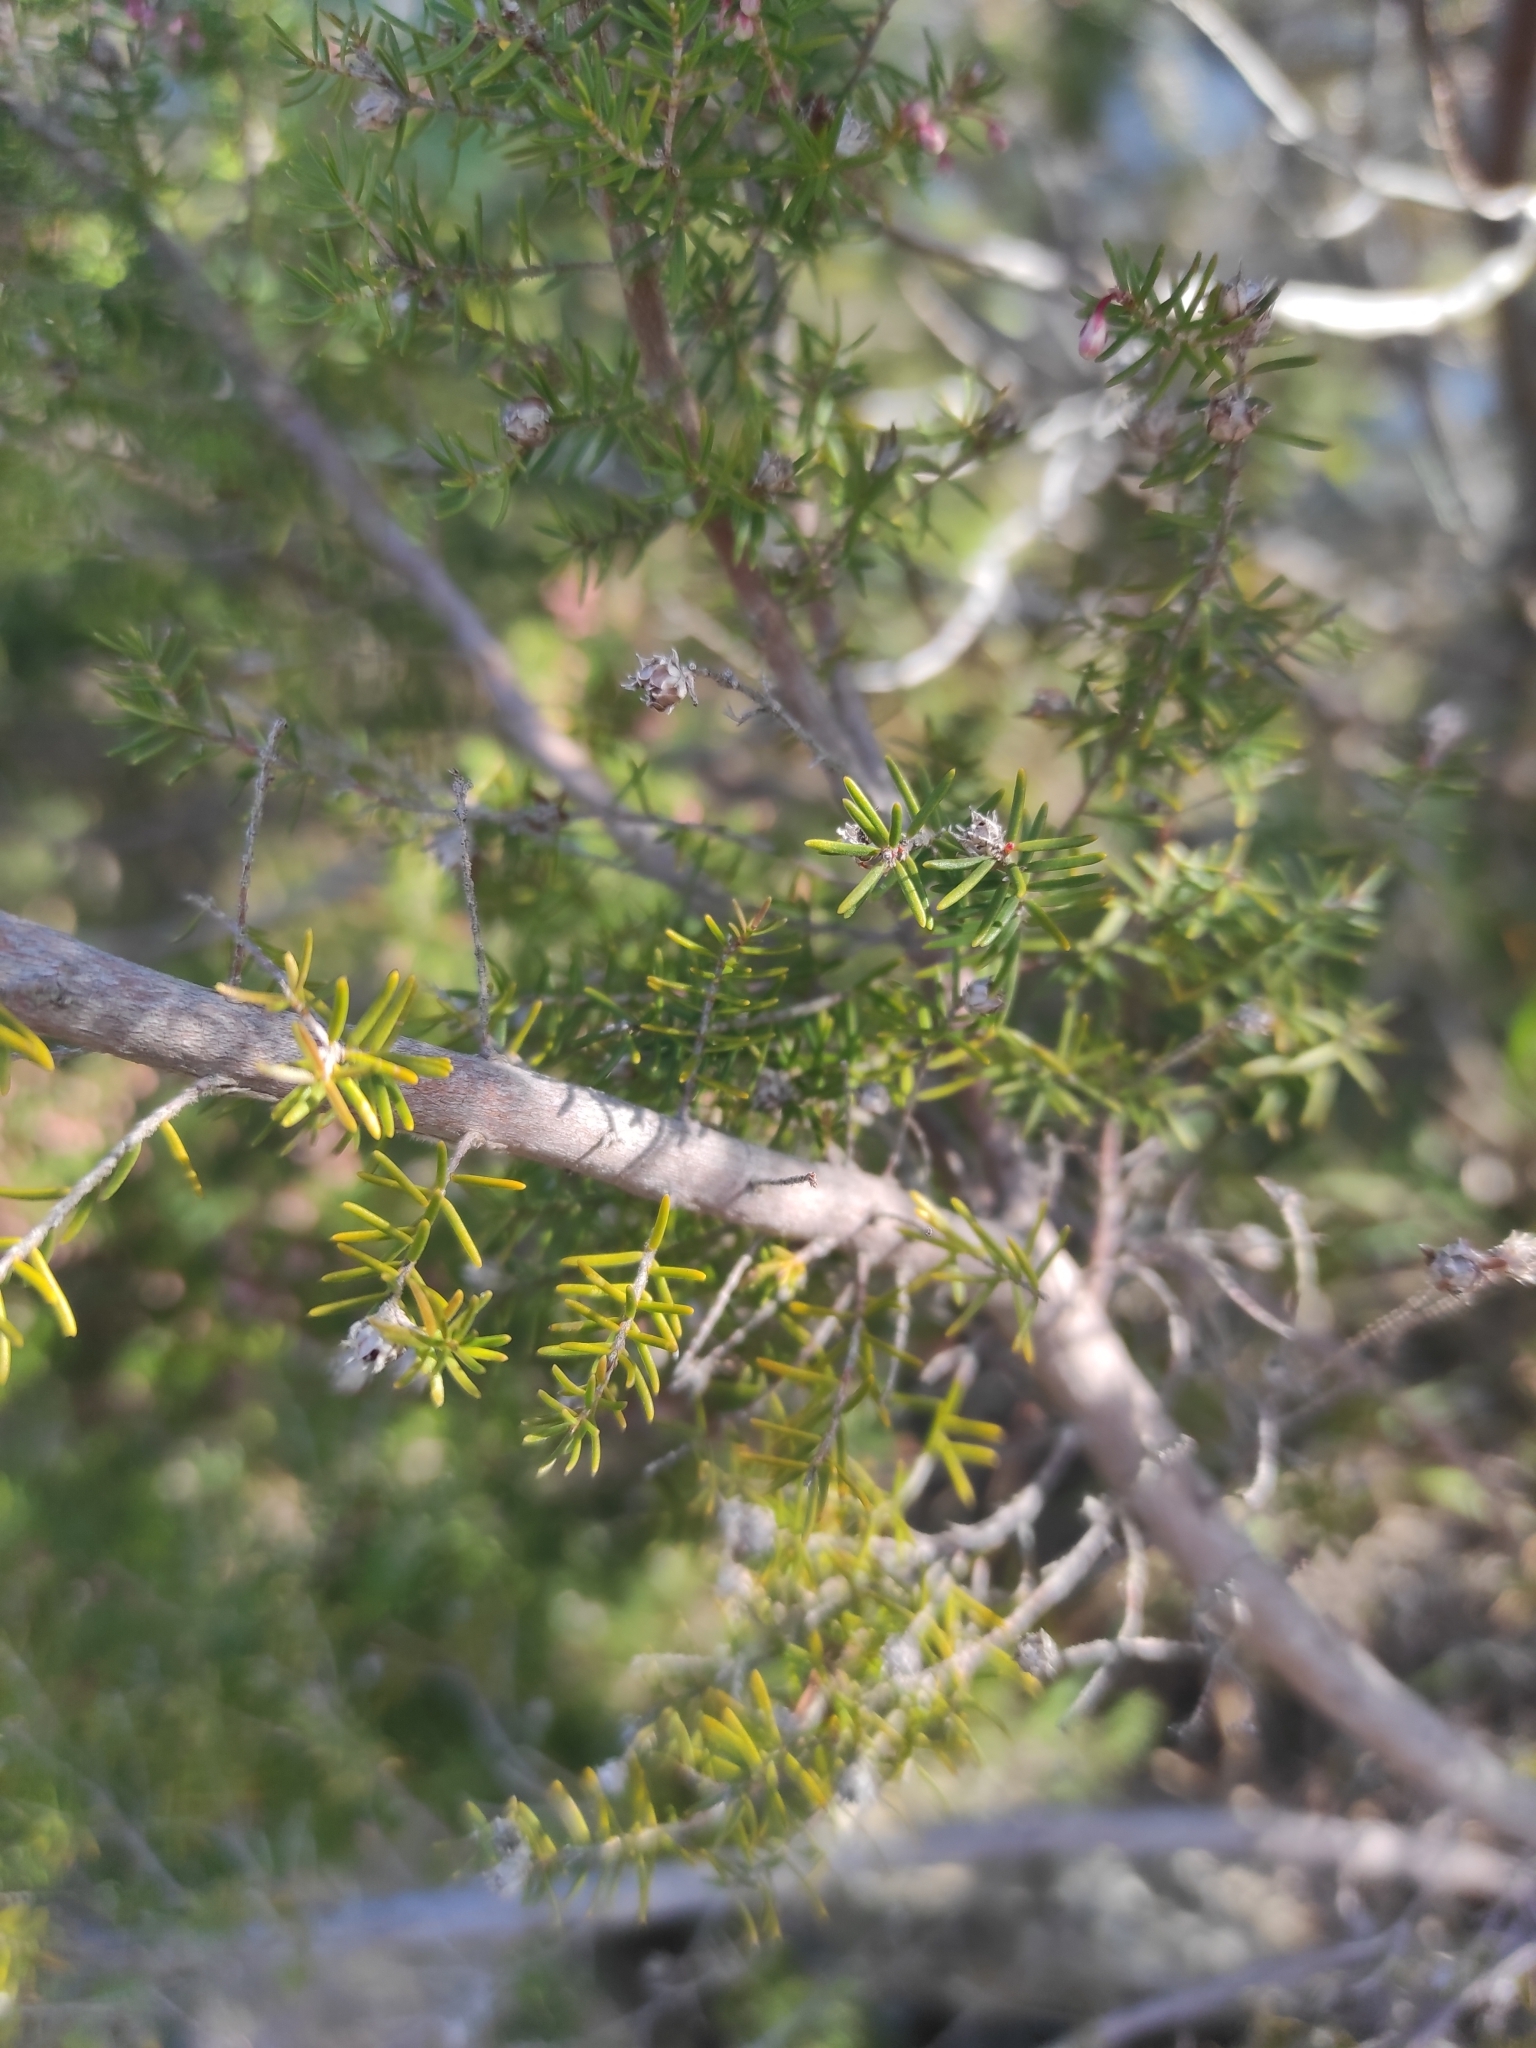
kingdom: Plantae
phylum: Tracheophyta
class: Magnoliopsida
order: Ericales
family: Ericaceae
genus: Erica
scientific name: Erica arborea
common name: Tree heath
